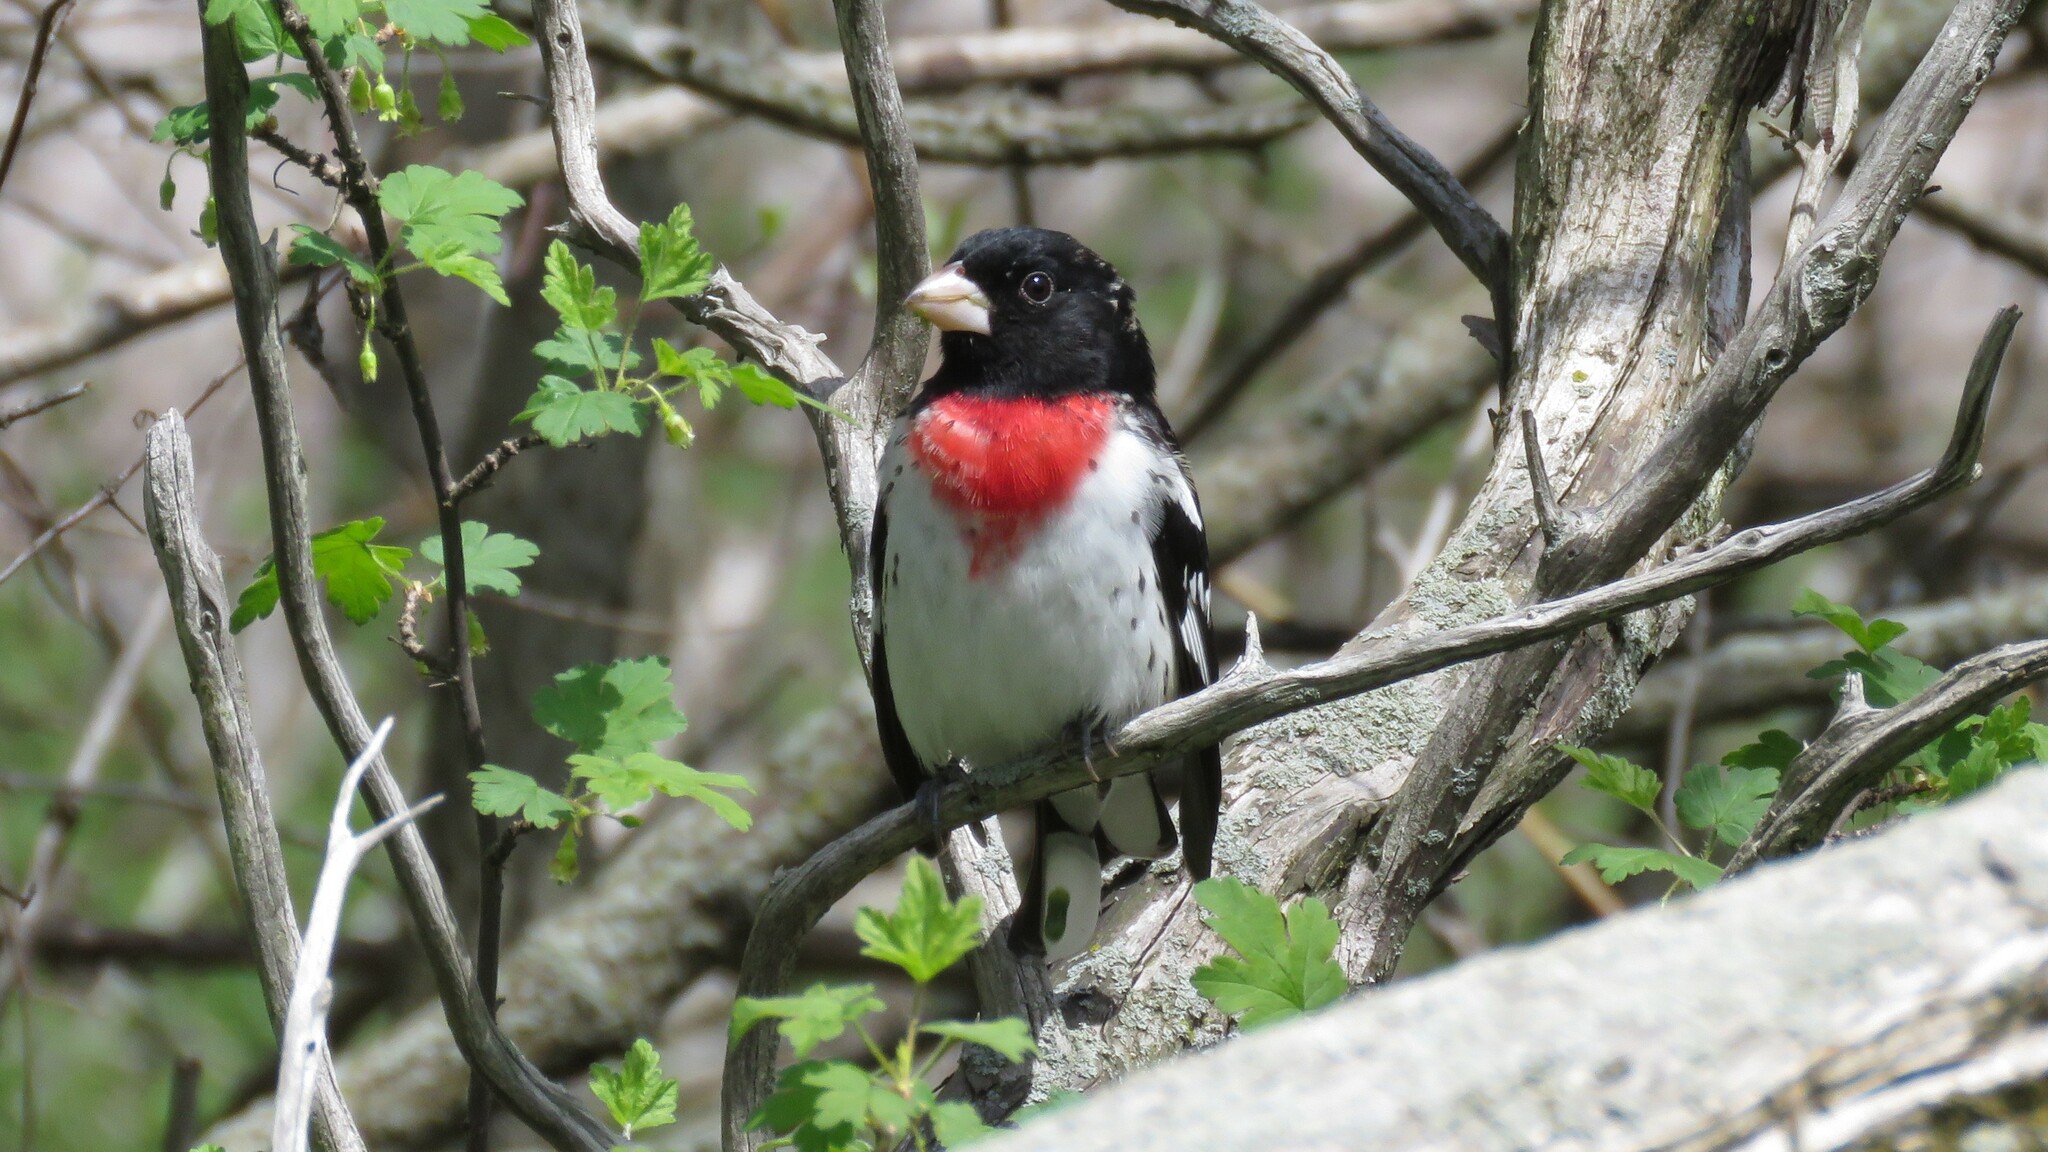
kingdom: Animalia
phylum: Chordata
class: Aves
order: Passeriformes
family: Cardinalidae
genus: Pheucticus
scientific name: Pheucticus ludovicianus
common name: Rose-breasted grosbeak
